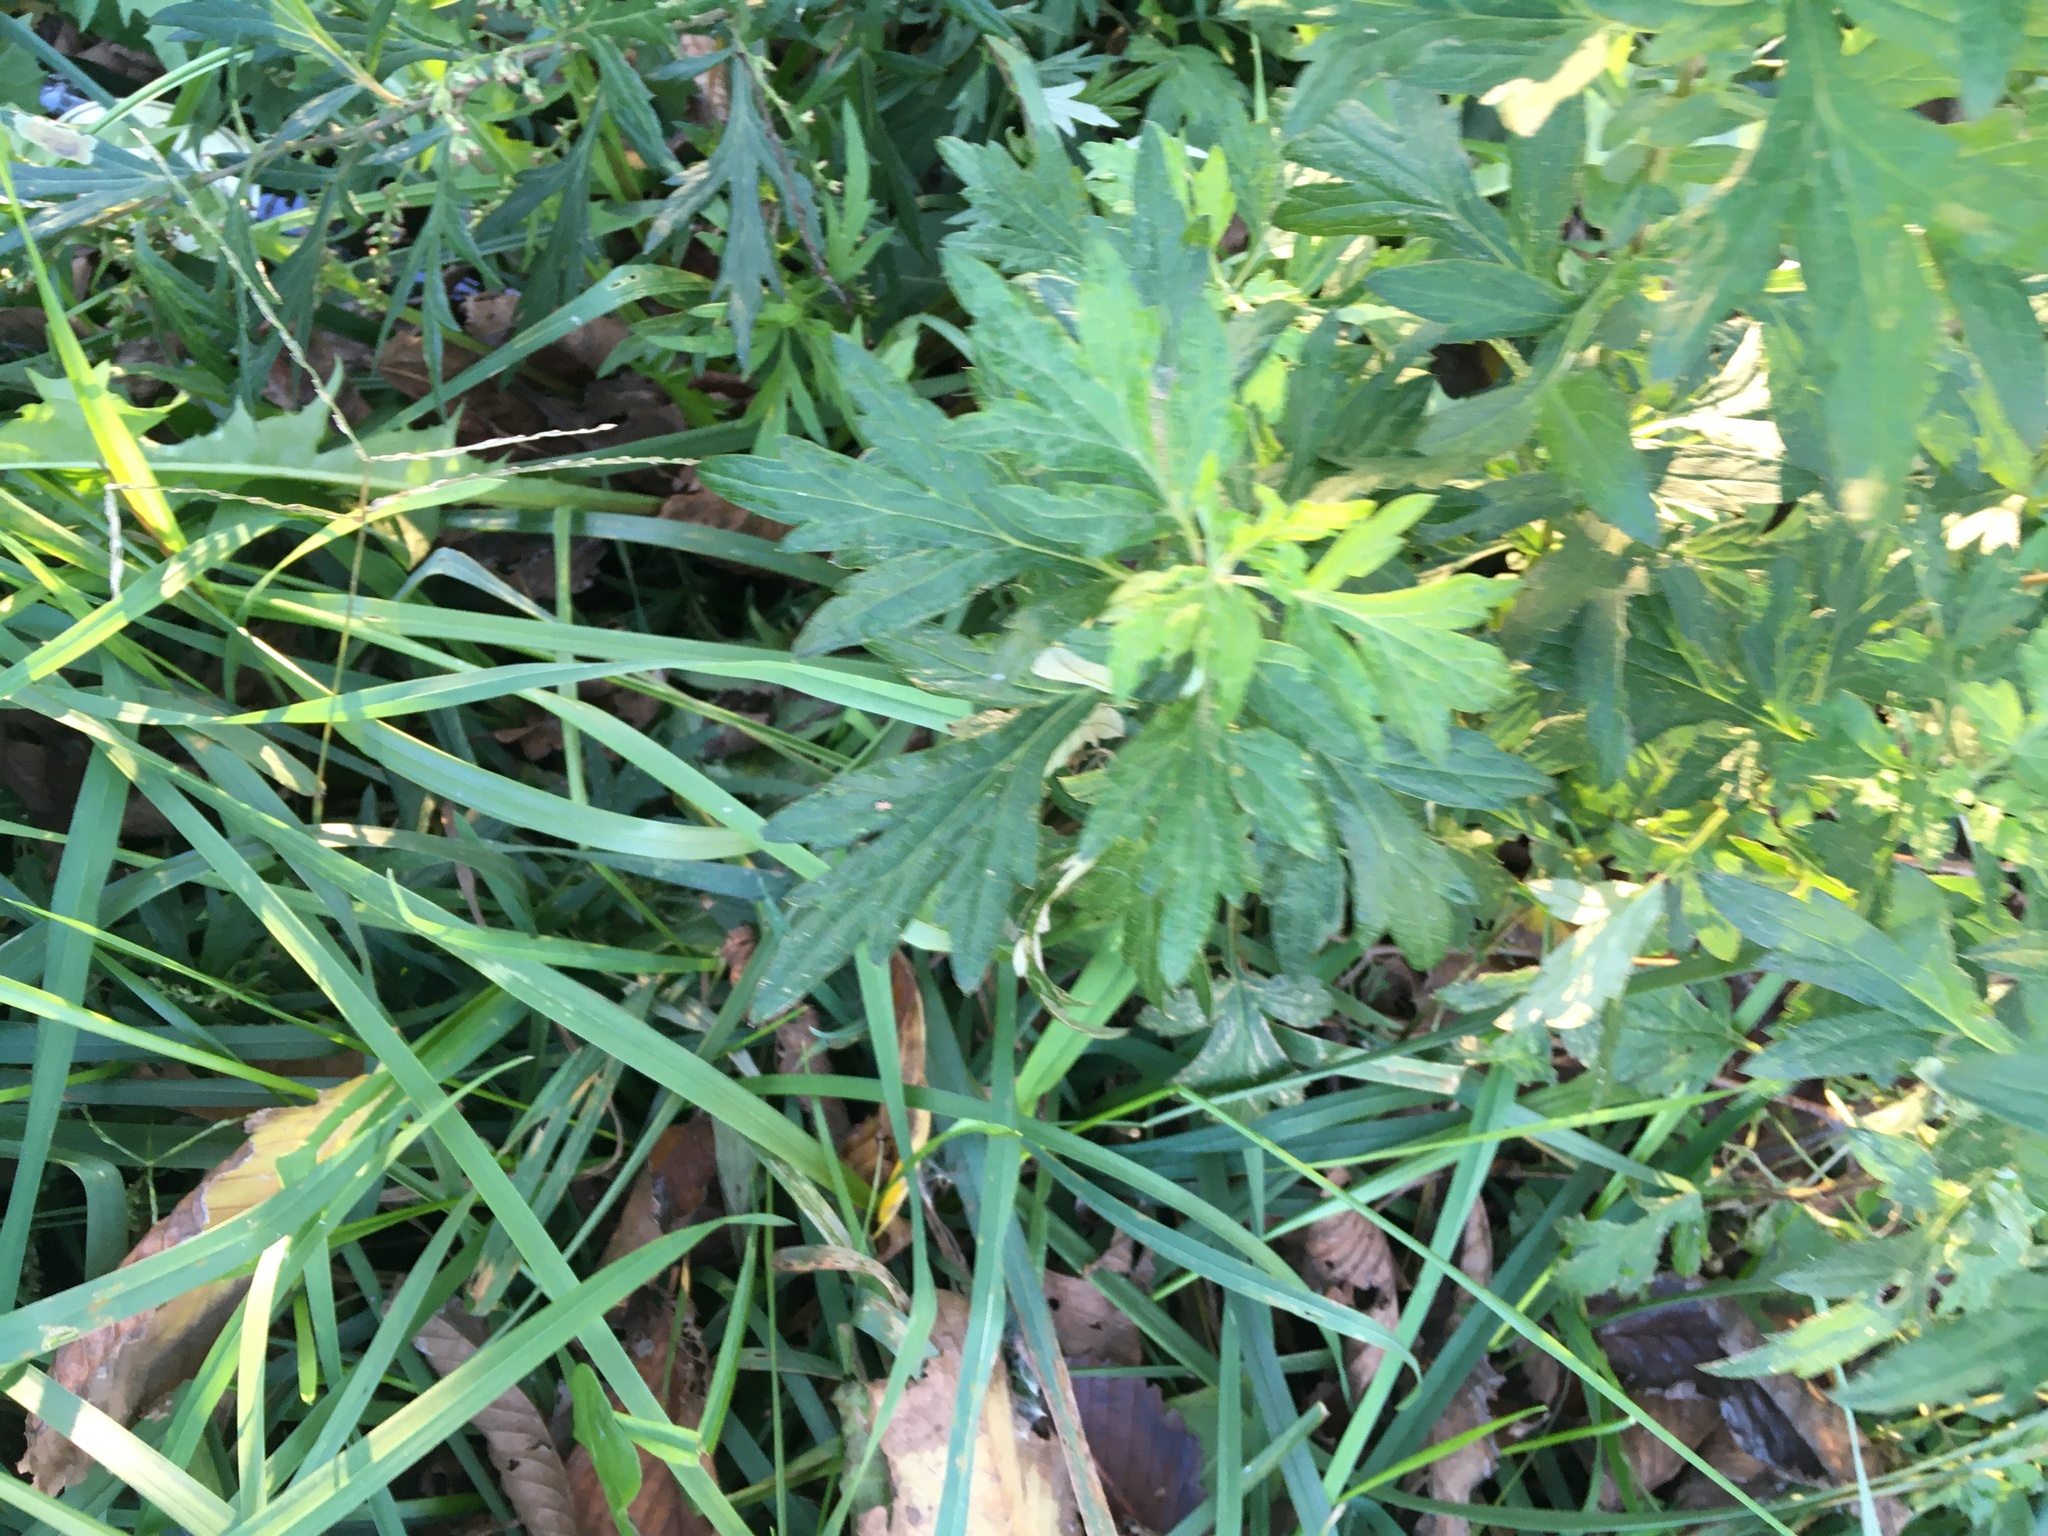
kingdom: Plantae
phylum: Tracheophyta
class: Magnoliopsida
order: Asterales
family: Asteraceae
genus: Artemisia
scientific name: Artemisia vulgaris
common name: Mugwort
